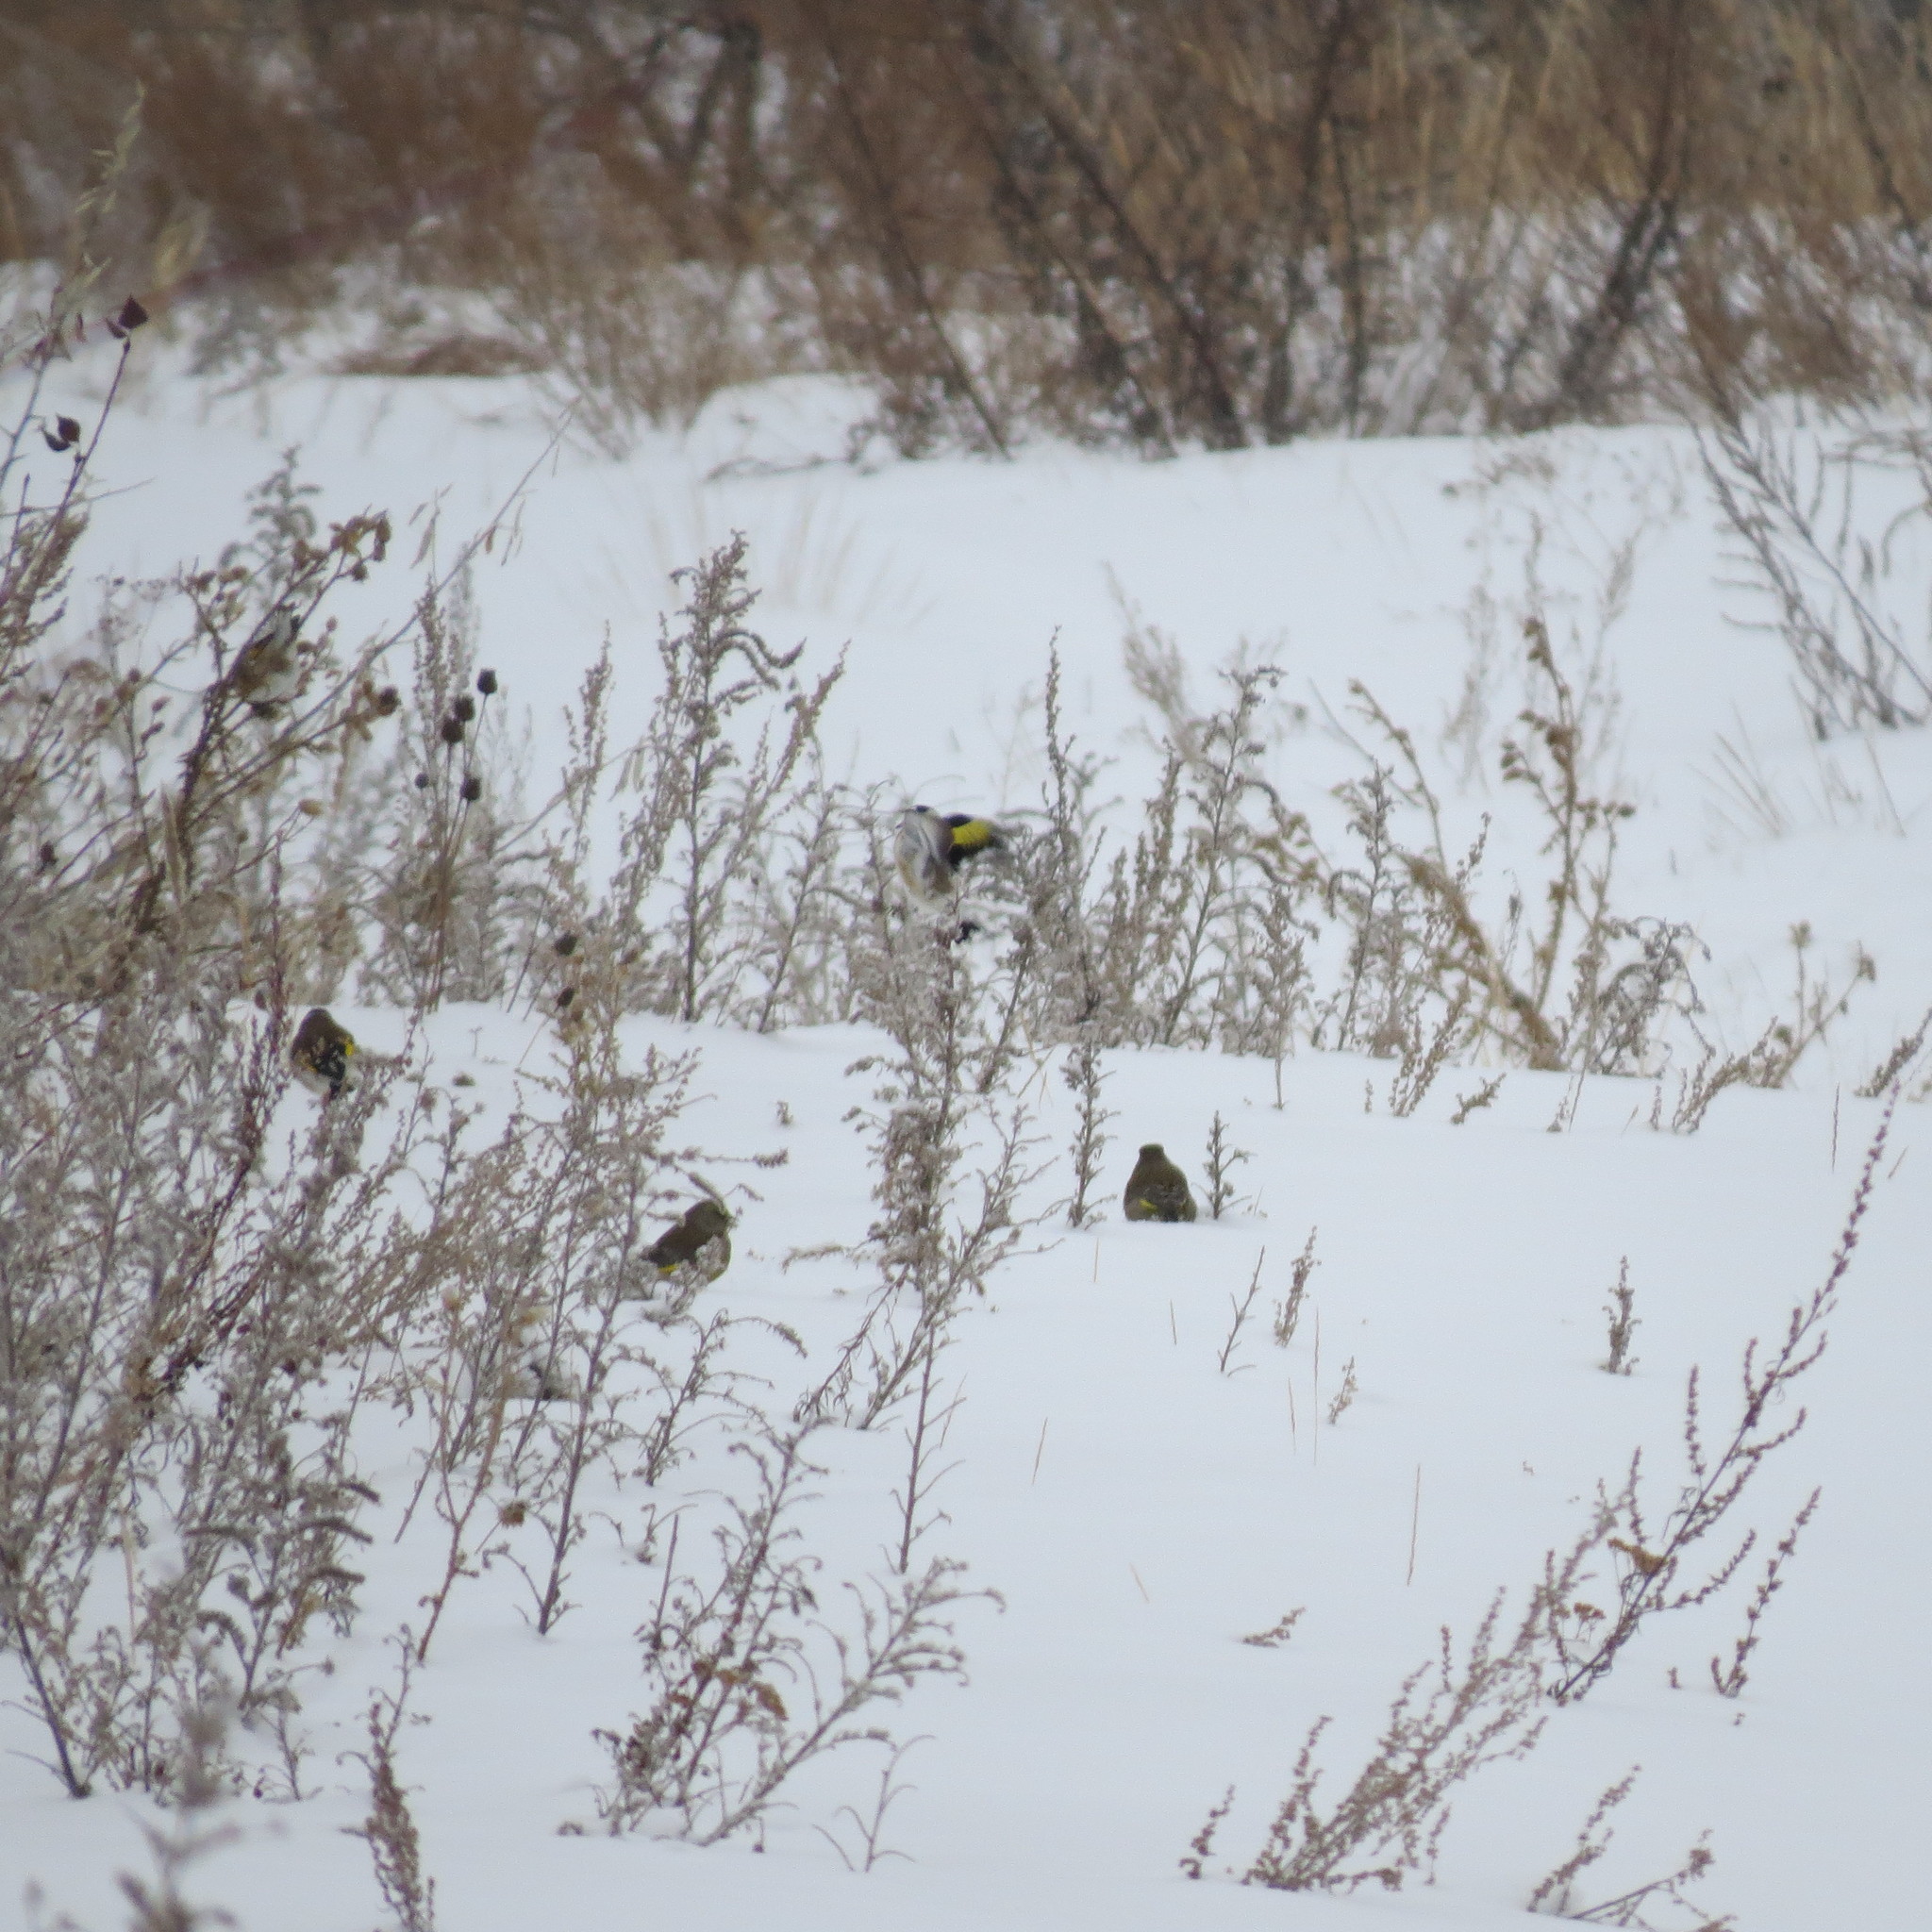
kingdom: Animalia
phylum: Chordata
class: Aves
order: Passeriformes
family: Fringillidae
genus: Carduelis
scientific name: Carduelis carduelis
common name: European goldfinch
